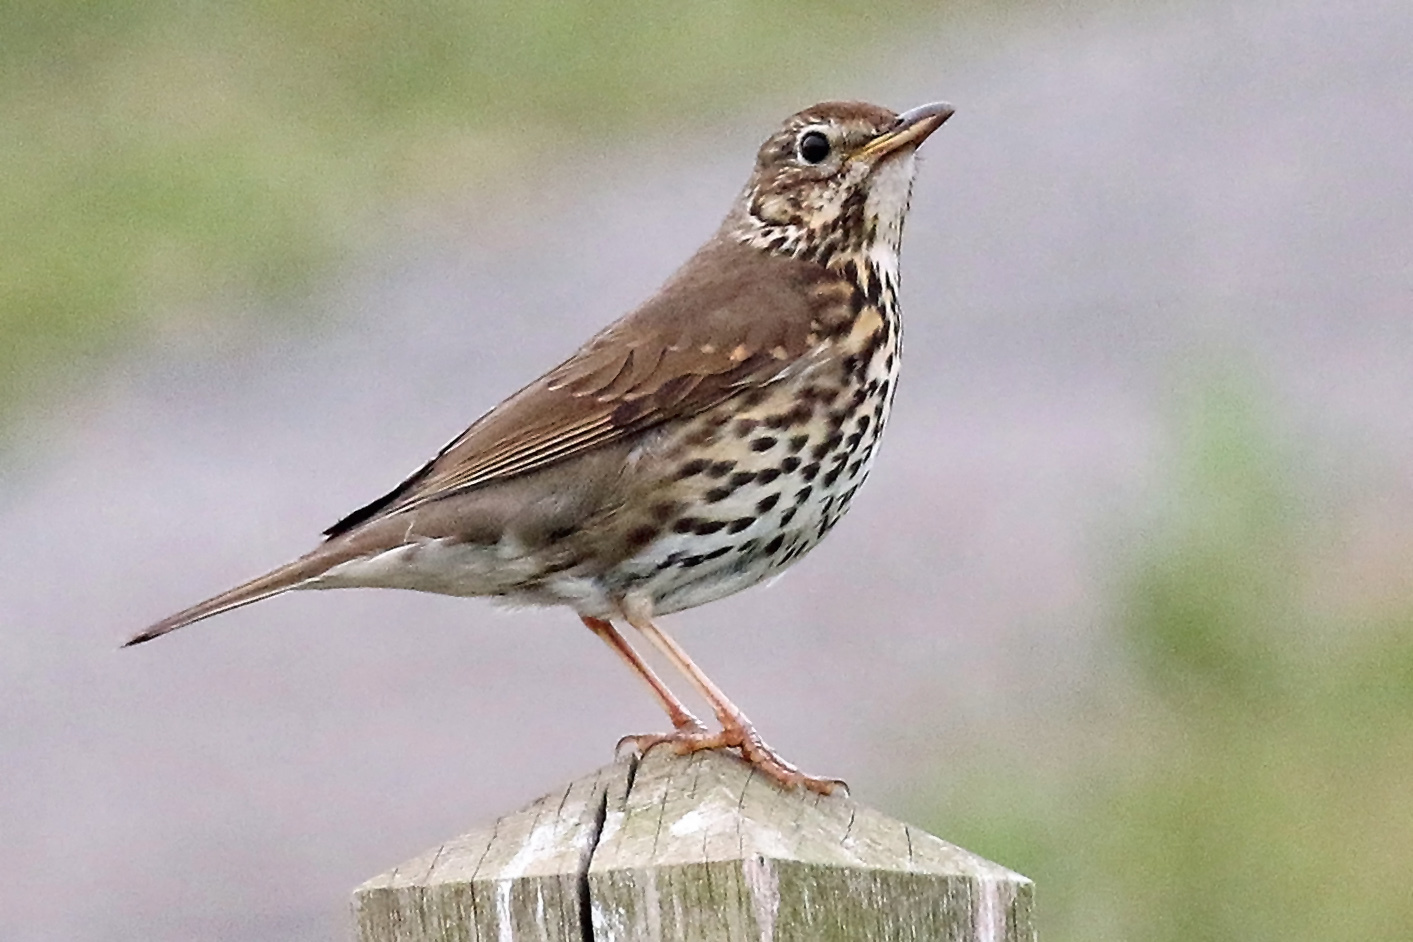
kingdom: Animalia
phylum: Chordata
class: Aves
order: Passeriformes
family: Turdidae
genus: Turdus
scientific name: Turdus philomelos
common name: Song thrush
